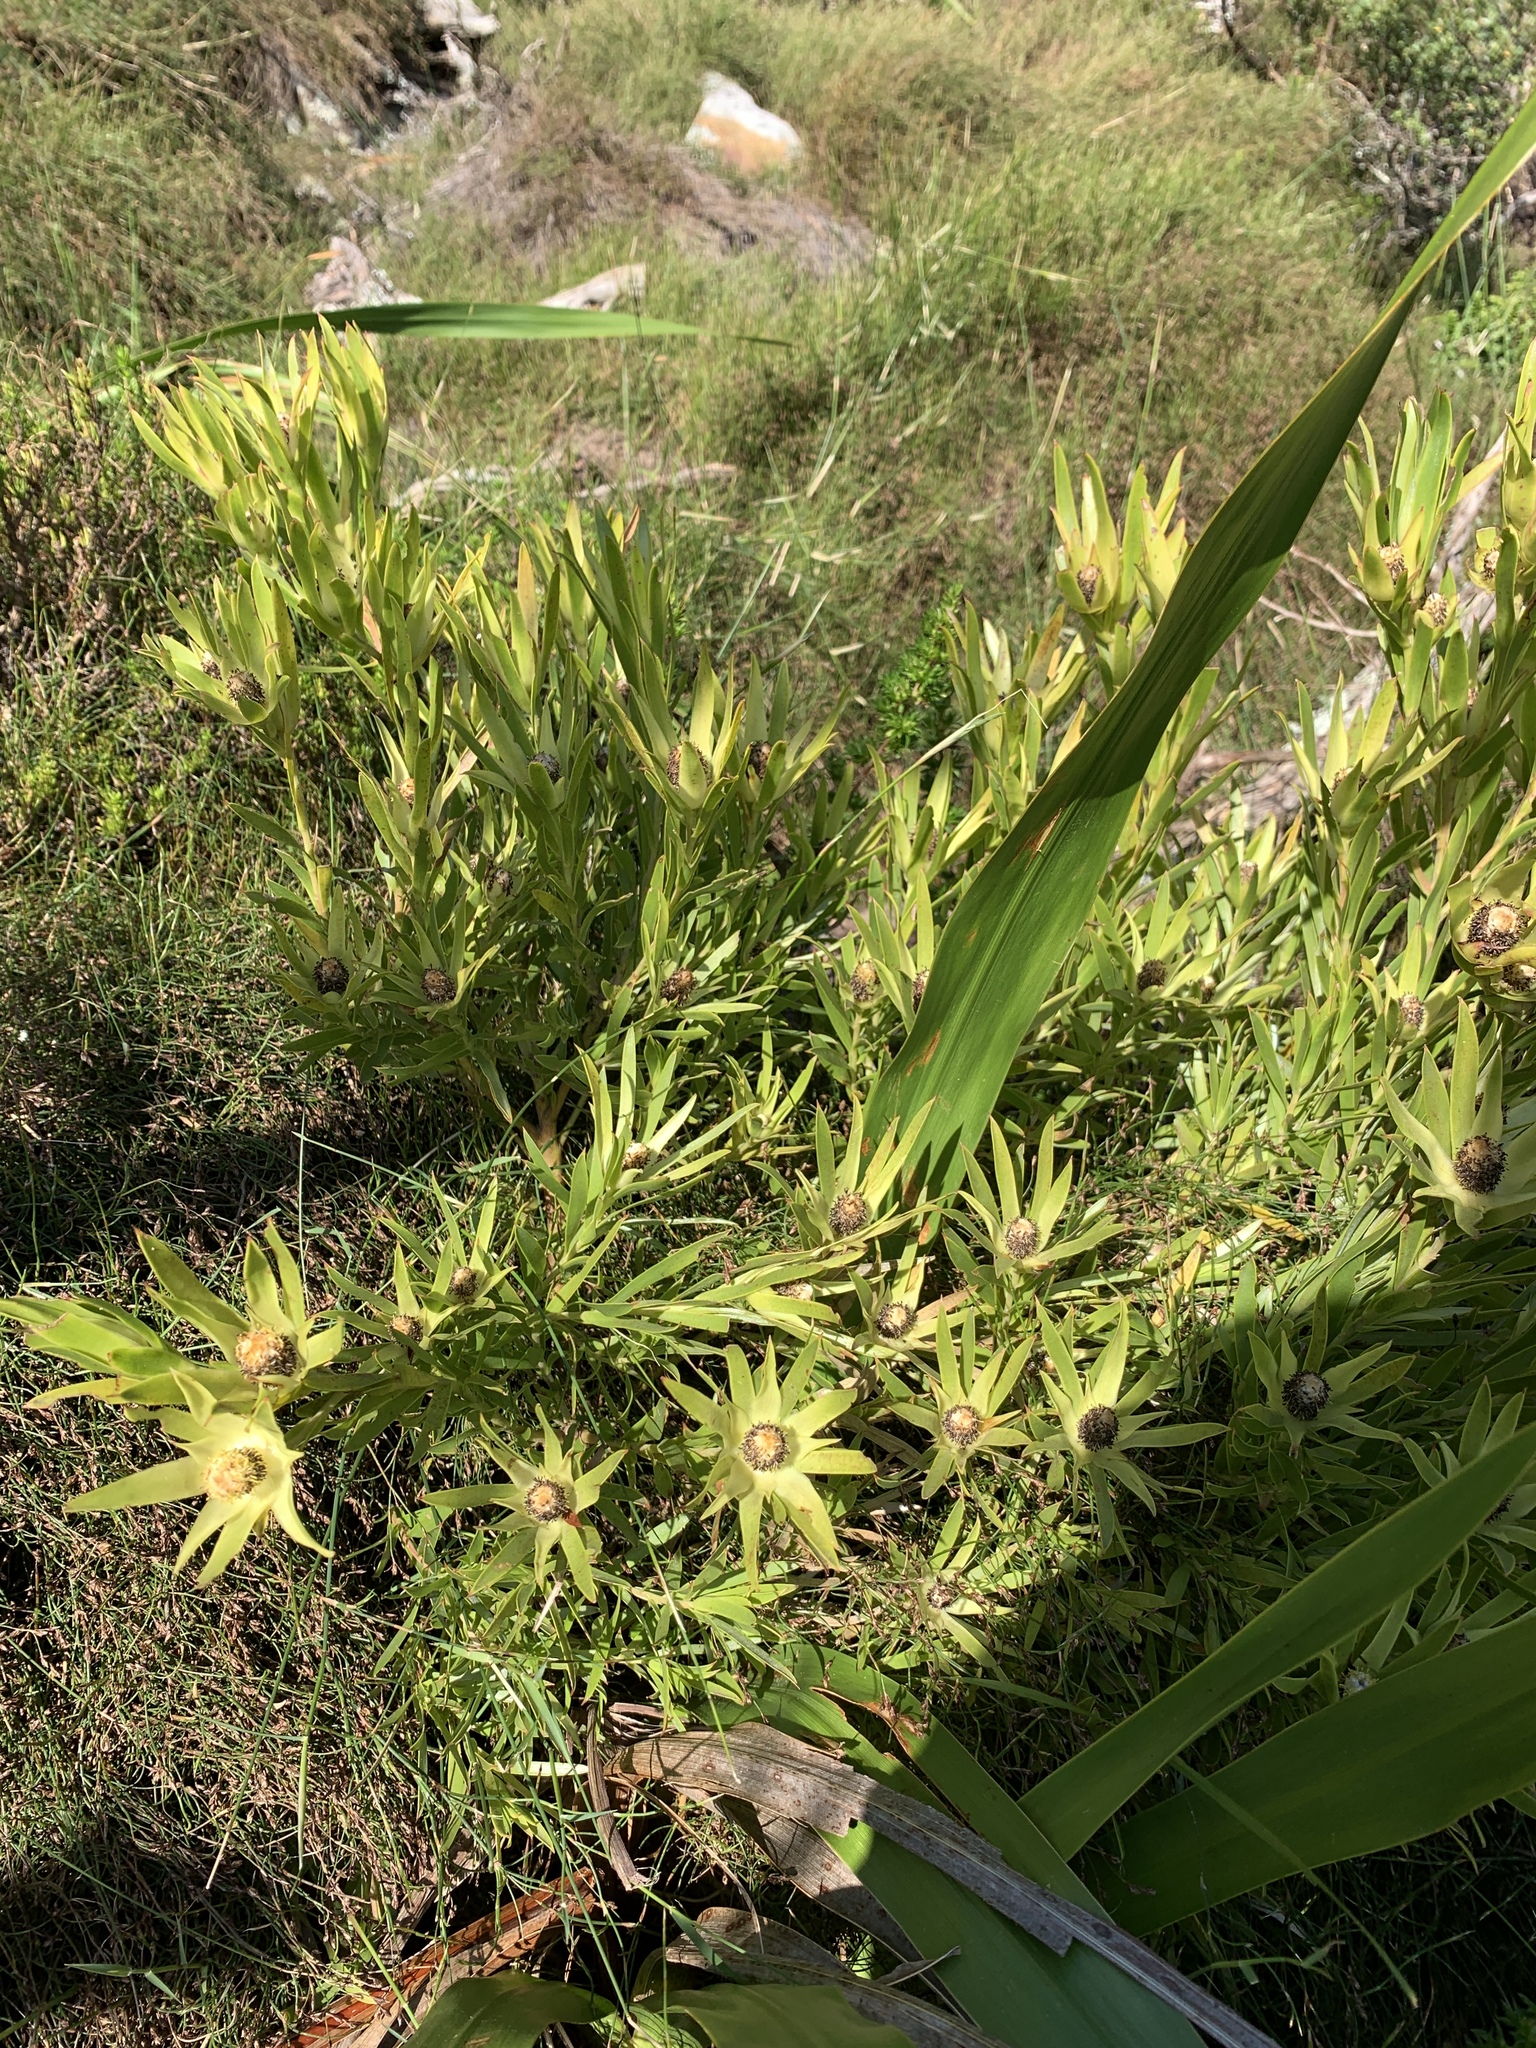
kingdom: Plantae
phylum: Tracheophyta
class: Magnoliopsida
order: Proteales
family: Proteaceae
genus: Leucadendron
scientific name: Leucadendron xanthoconus
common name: Sickle-leaf conebush
